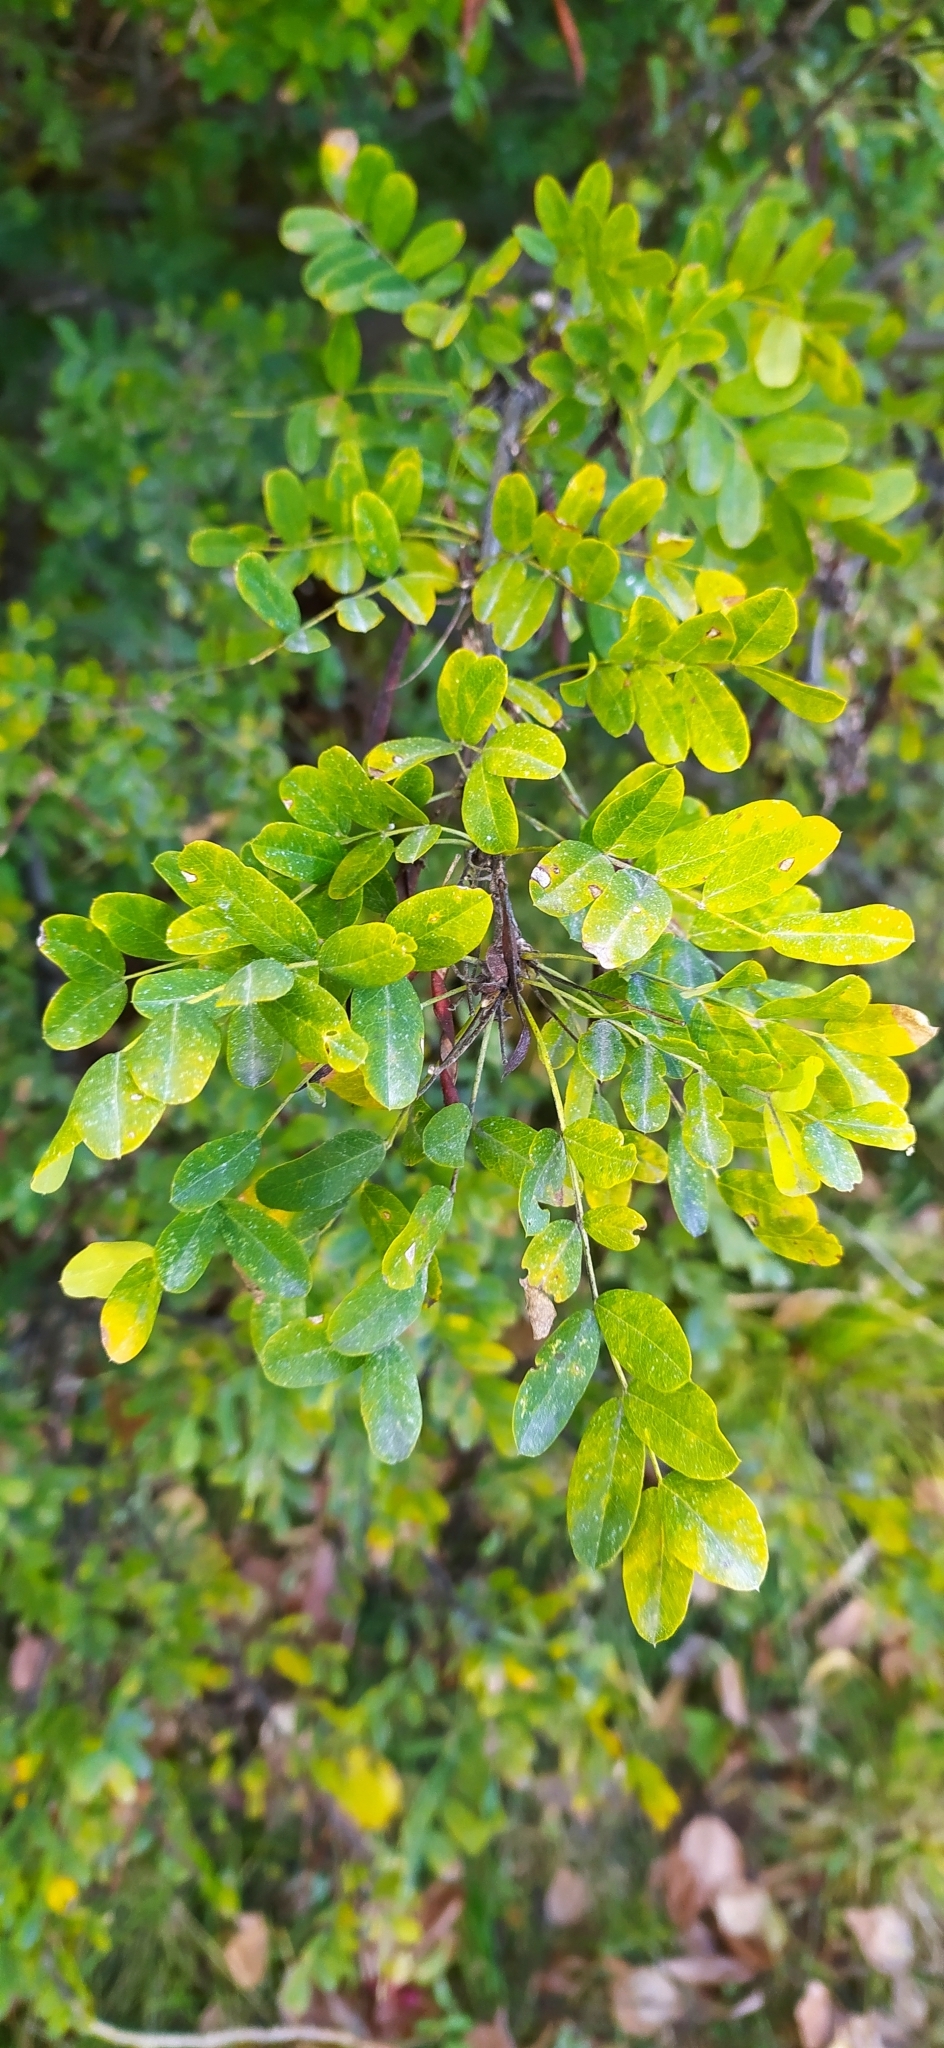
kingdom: Plantae
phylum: Tracheophyta
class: Magnoliopsida
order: Fabales
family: Fabaceae
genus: Caragana
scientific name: Caragana arborescens
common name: Siberian peashrub
